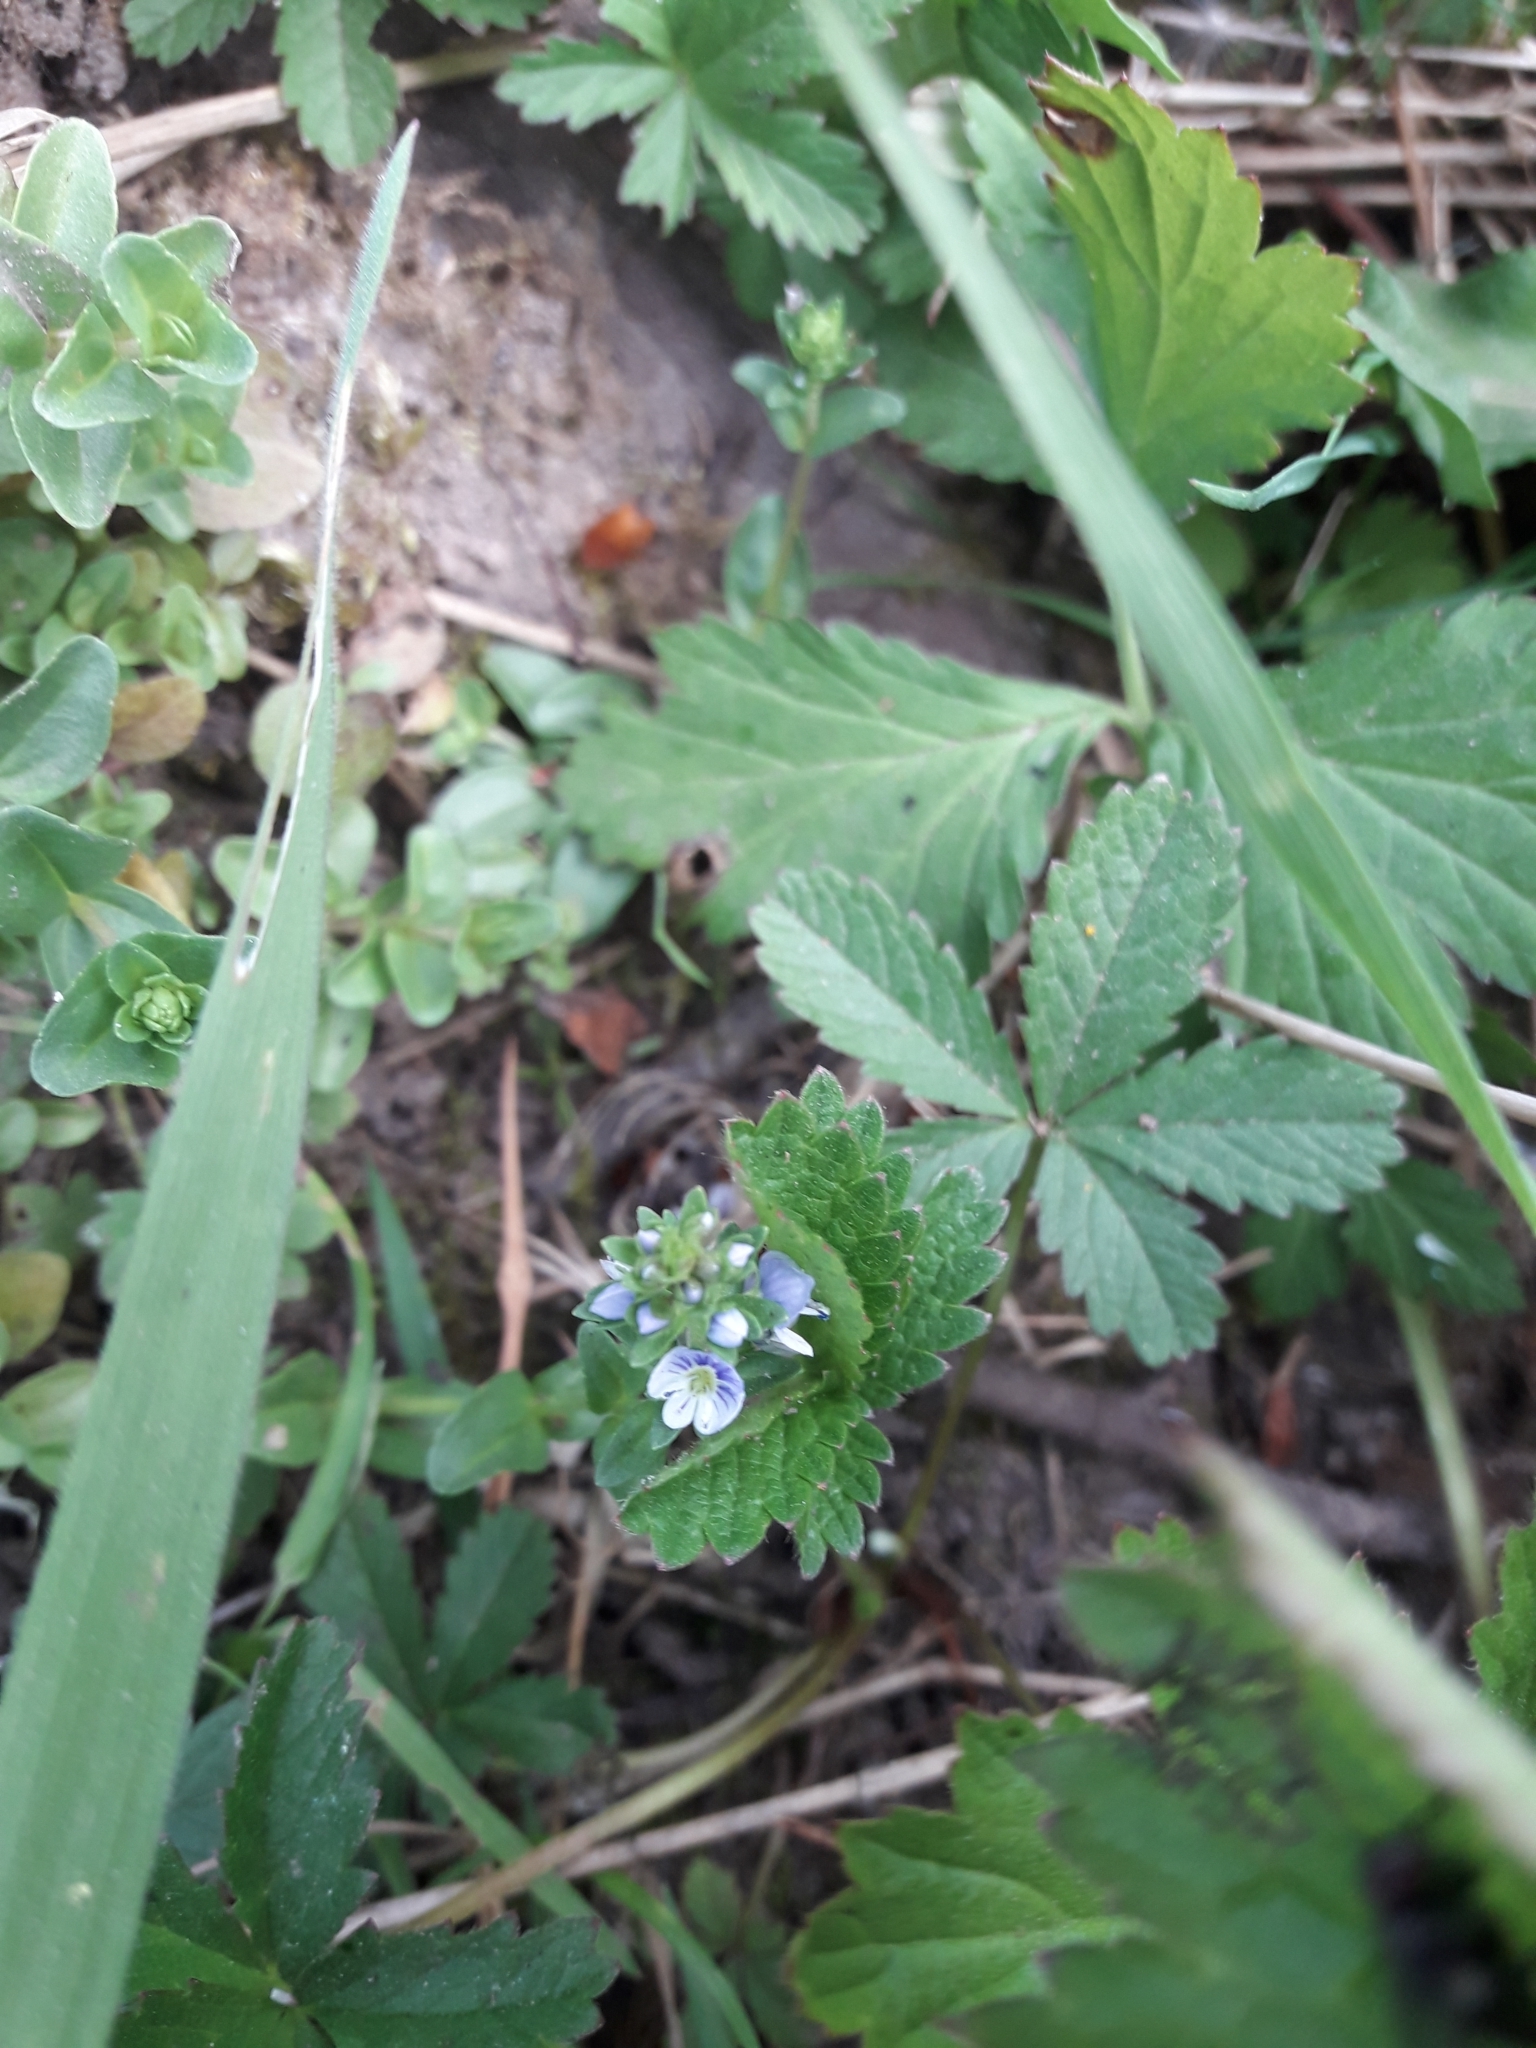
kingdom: Plantae
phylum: Tracheophyta
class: Magnoliopsida
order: Lamiales
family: Plantaginaceae
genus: Veronica
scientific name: Veronica serpyllifolia
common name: Thyme-leaved speedwell
